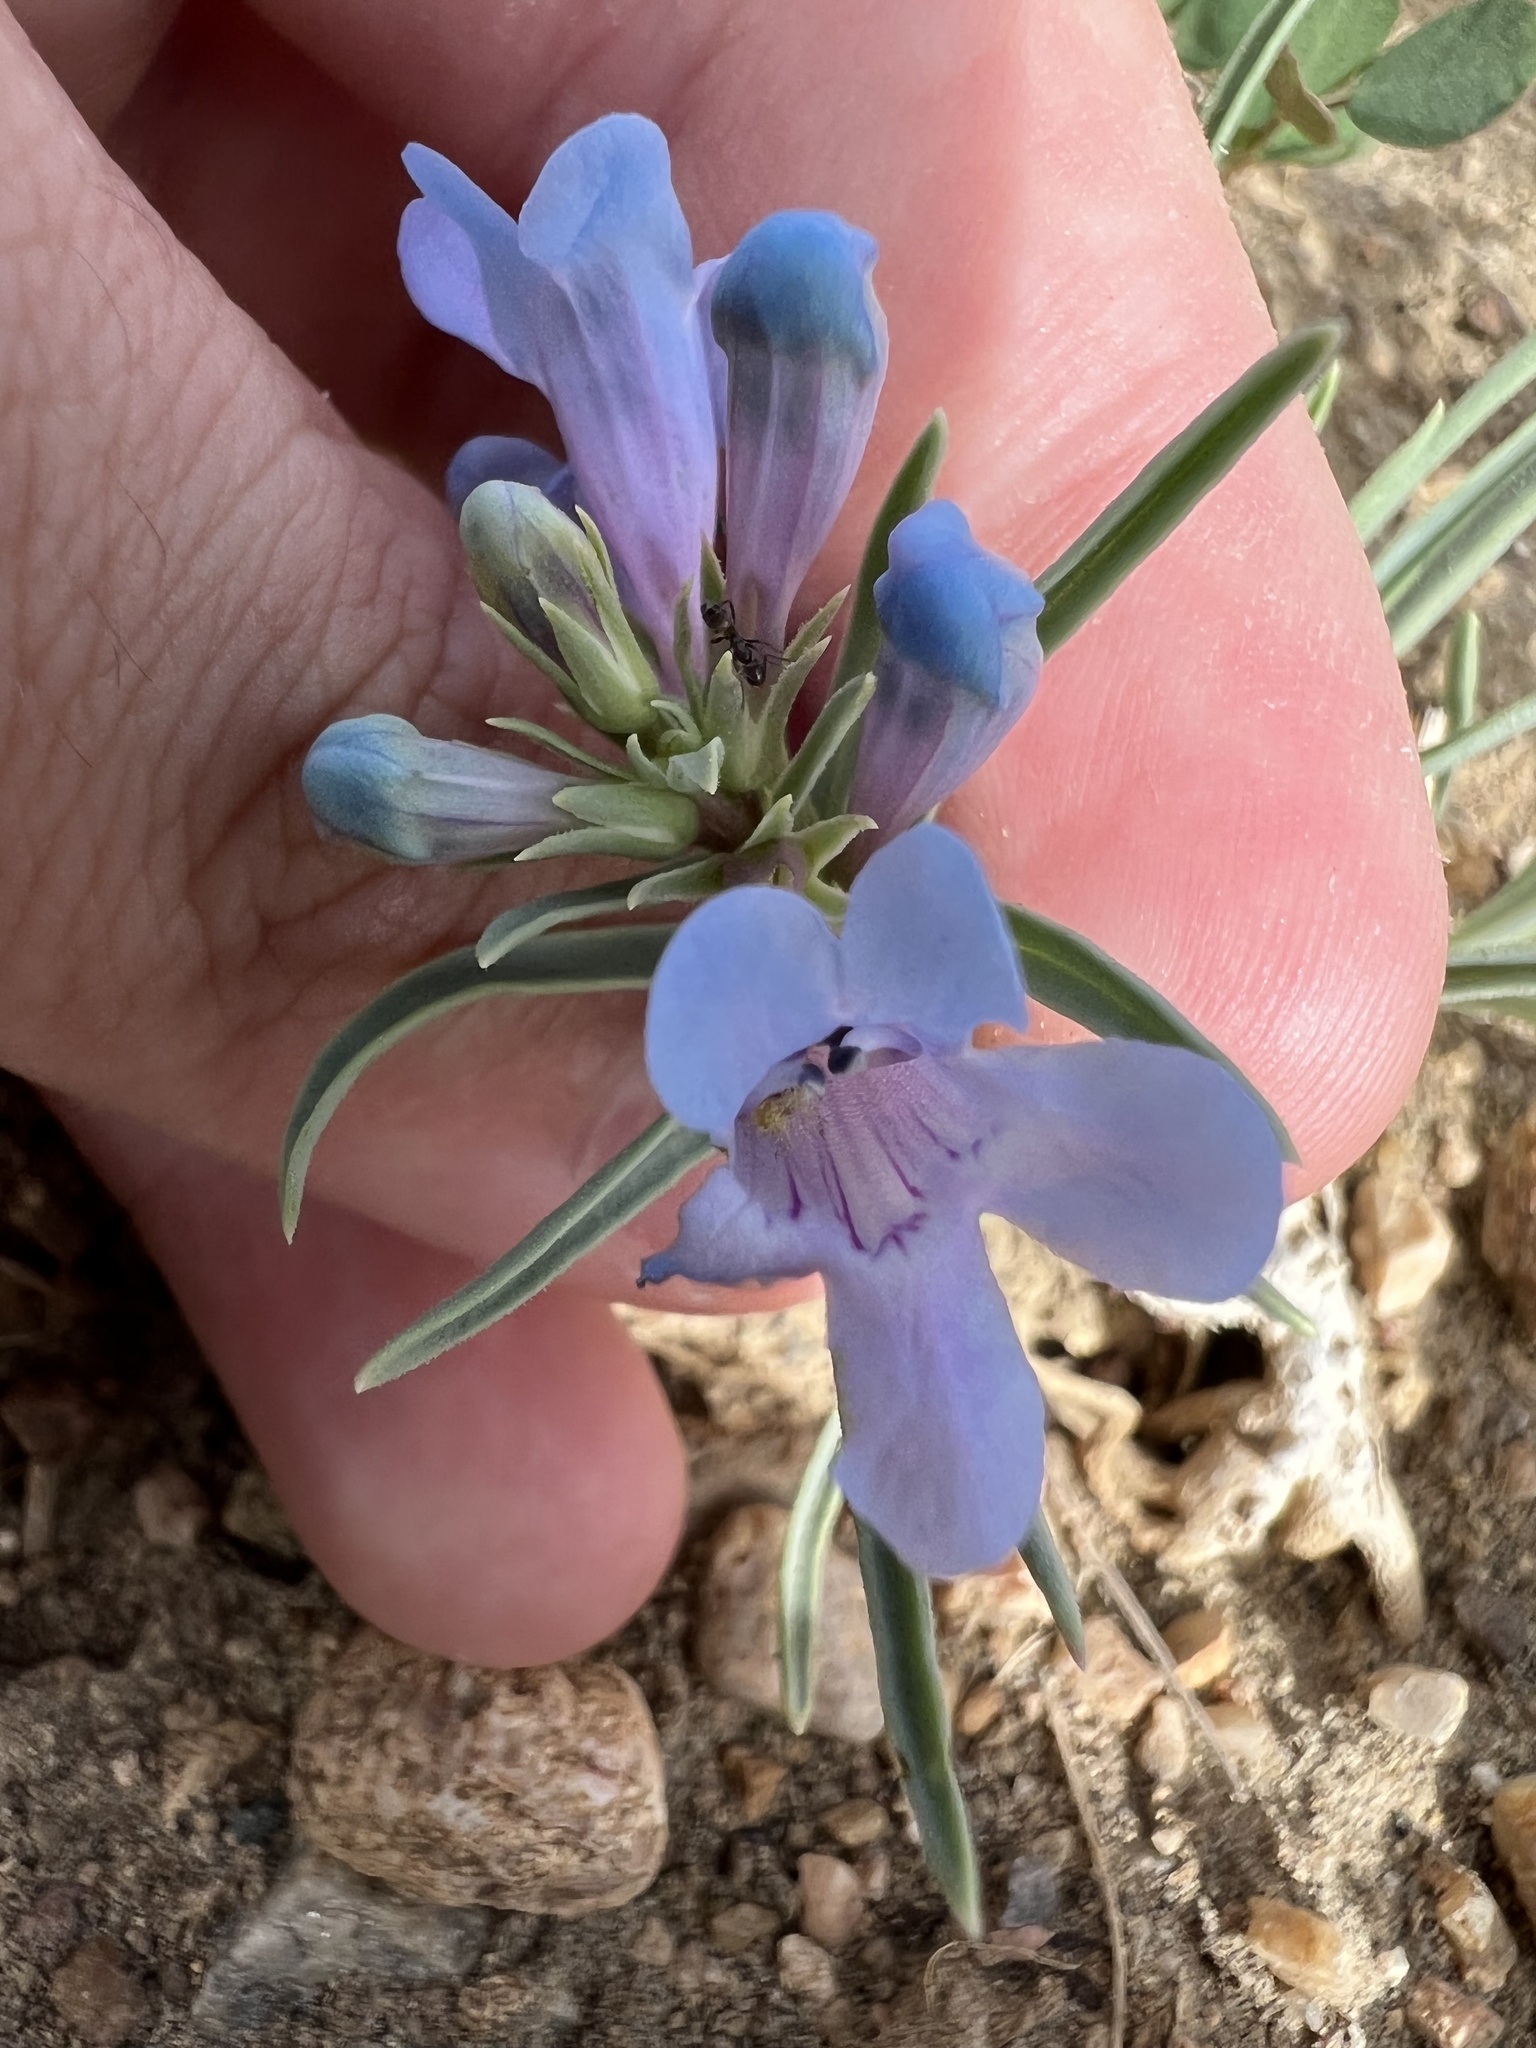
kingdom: Plantae
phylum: Tracheophyta
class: Magnoliopsida
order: Lamiales
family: Plantaginaceae
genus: Penstemon
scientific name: Penstemon angustifolius
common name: Narrow beardtongue
